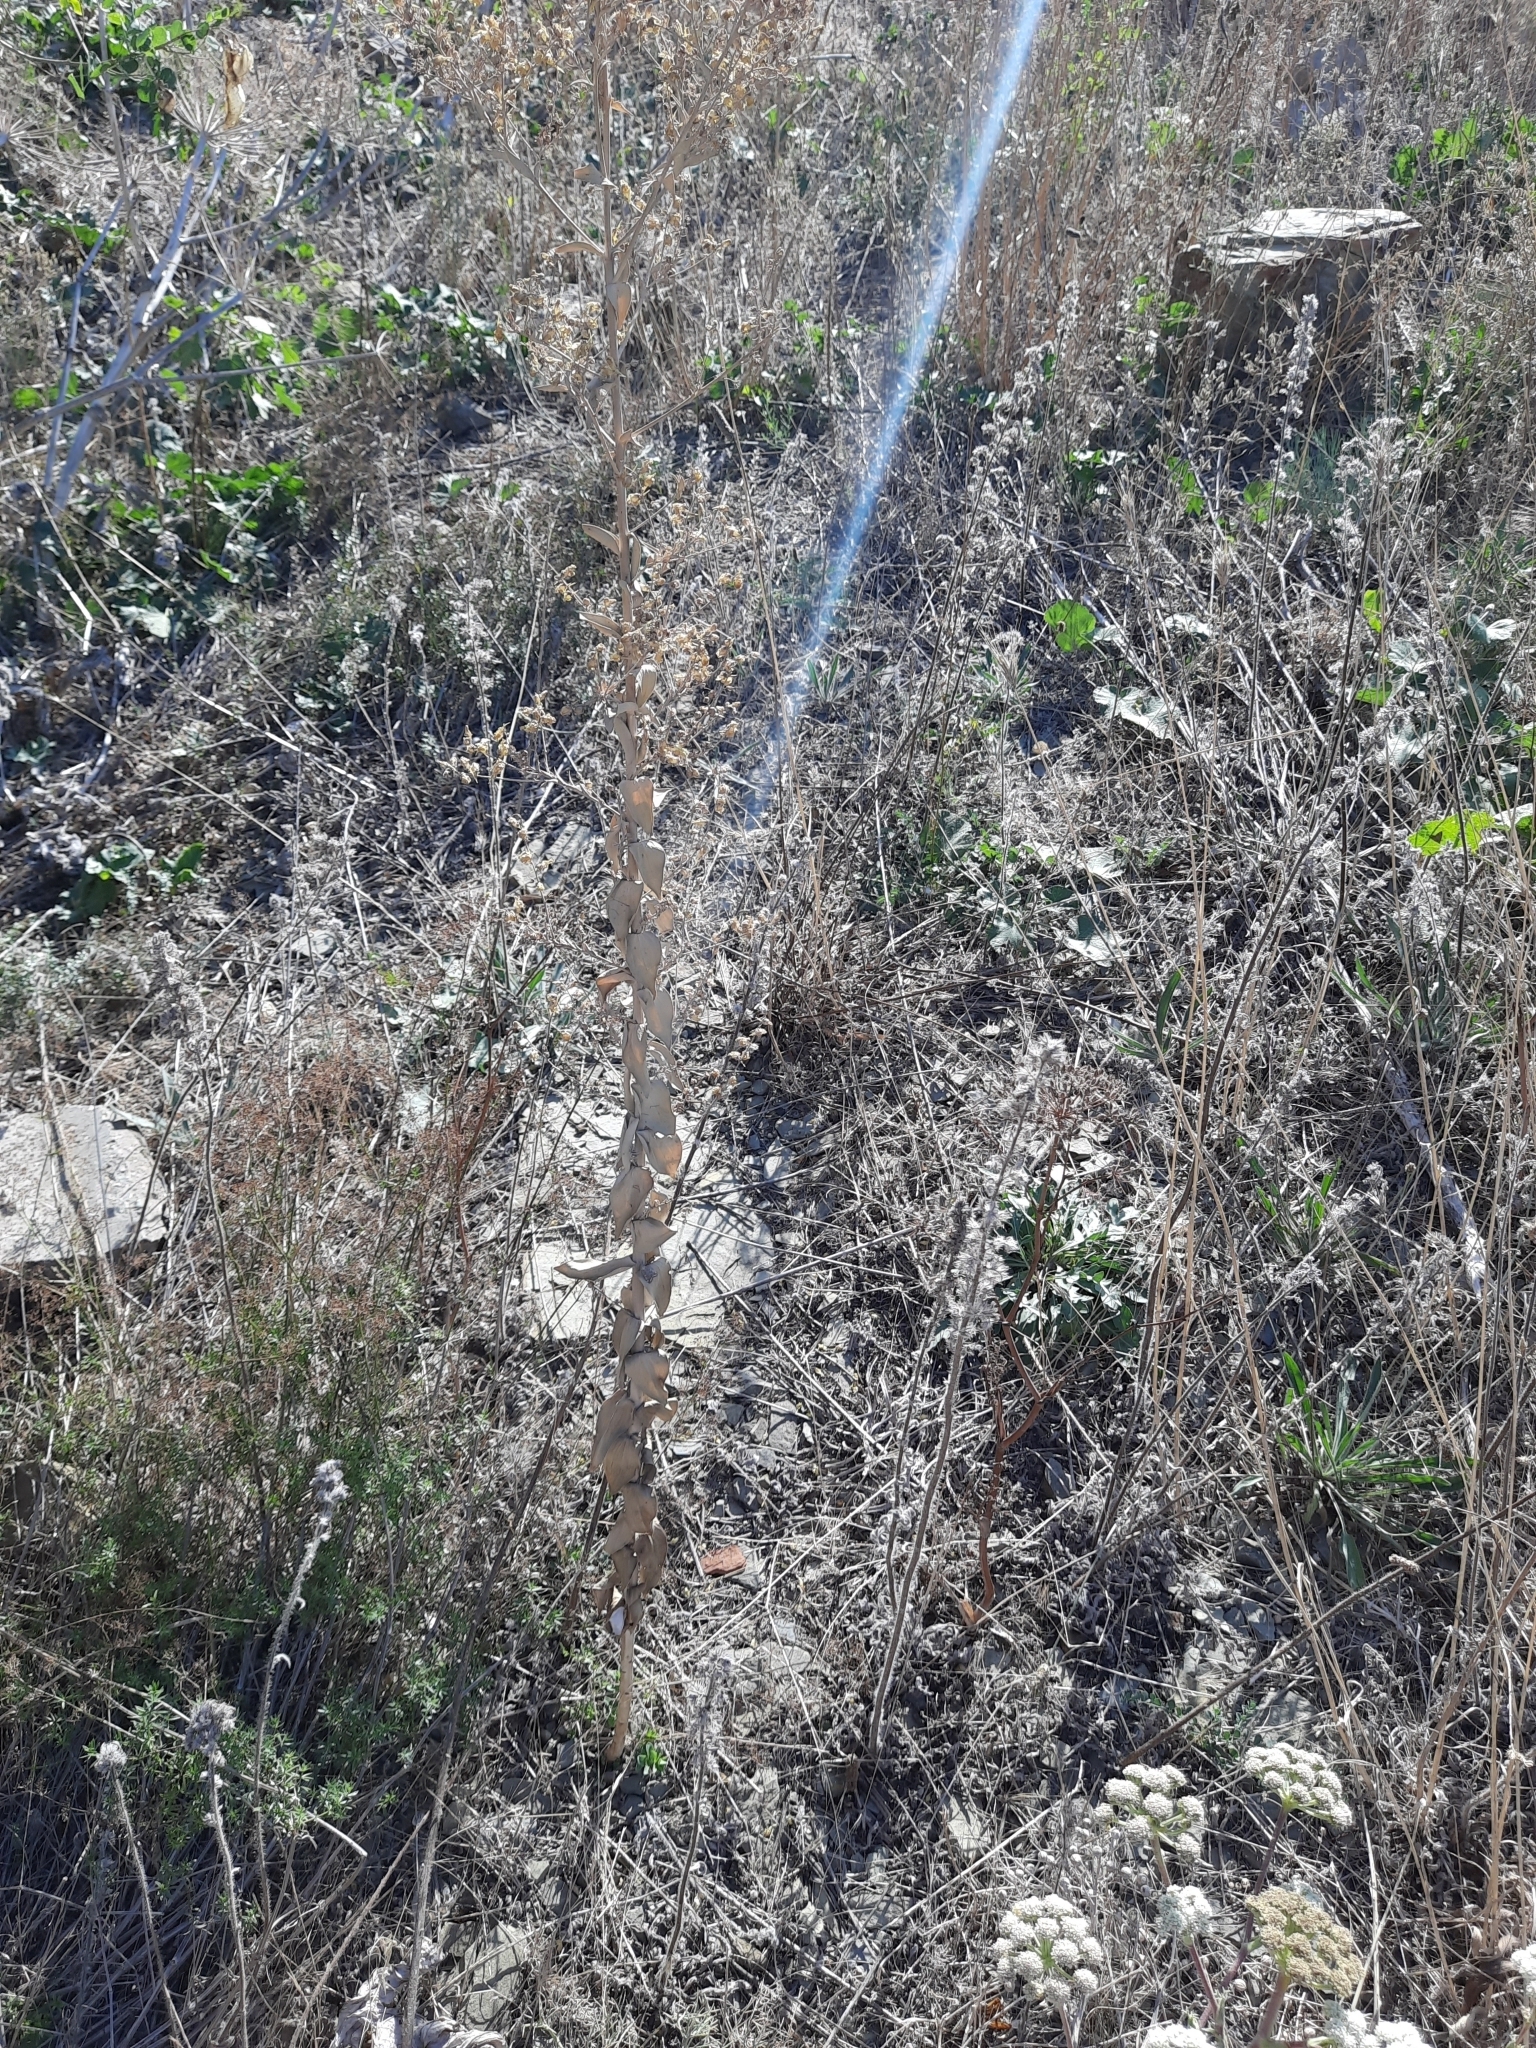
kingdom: Plantae
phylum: Tracheophyta
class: Magnoliopsida
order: Lamiales
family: Plantaginaceae
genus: Linaria
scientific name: Linaria genistifolia
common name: Broomleaf toadflax
